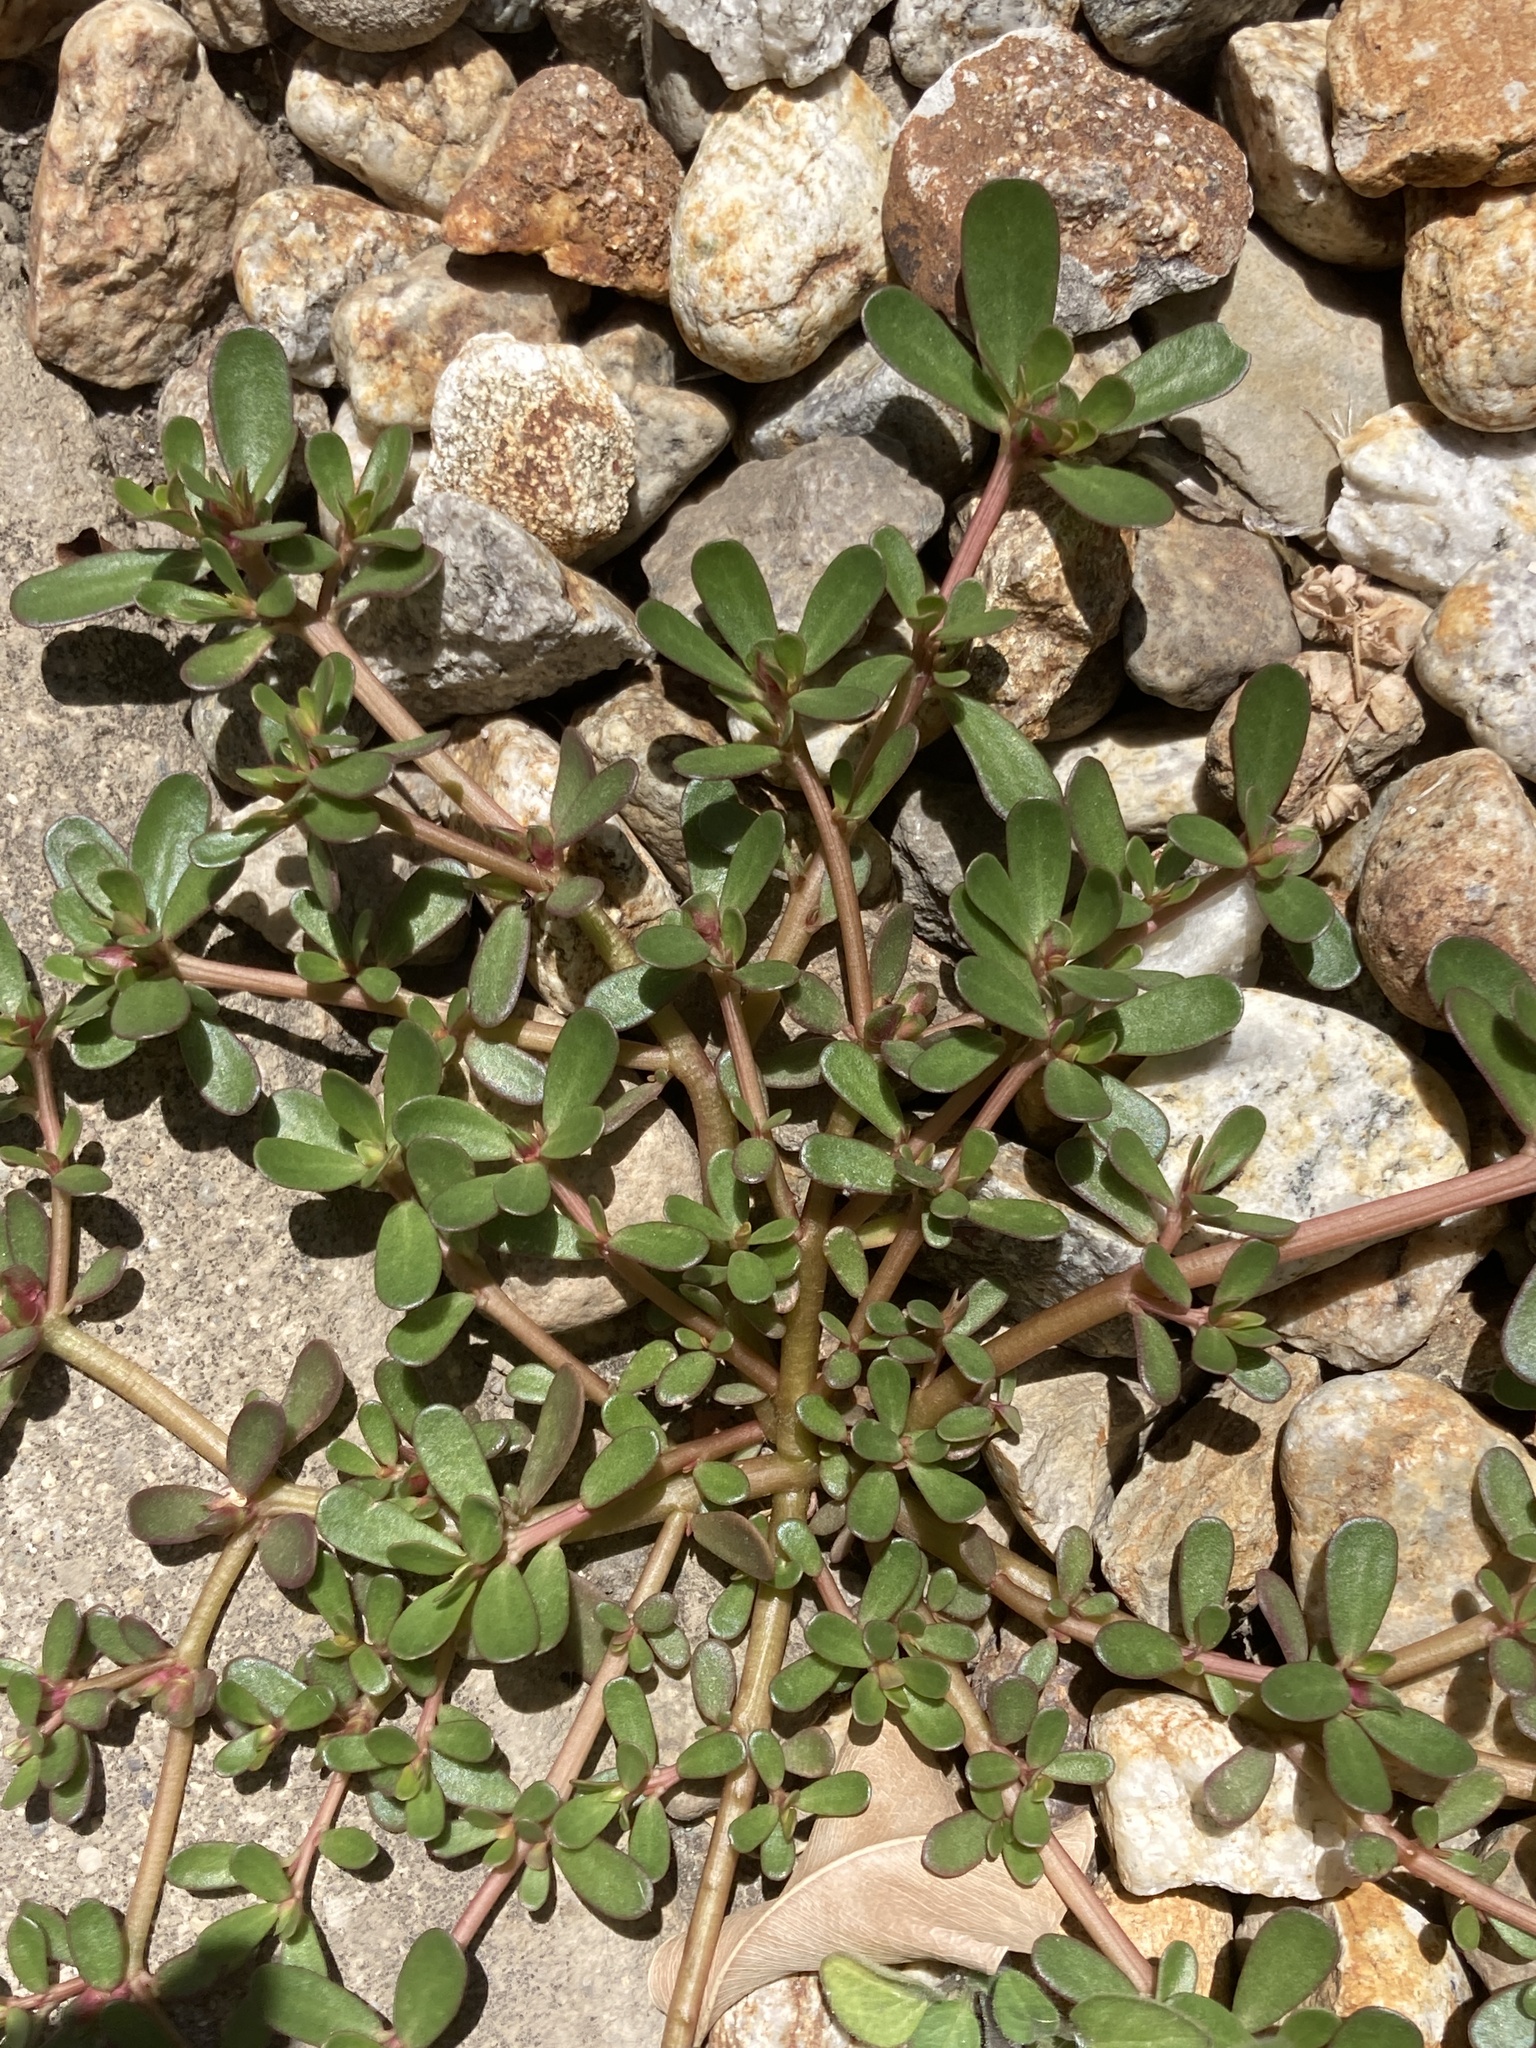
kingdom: Plantae
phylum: Tracheophyta
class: Magnoliopsida
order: Caryophyllales
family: Portulacaceae
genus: Portulaca
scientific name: Portulaca oleracea
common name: Common purslane
